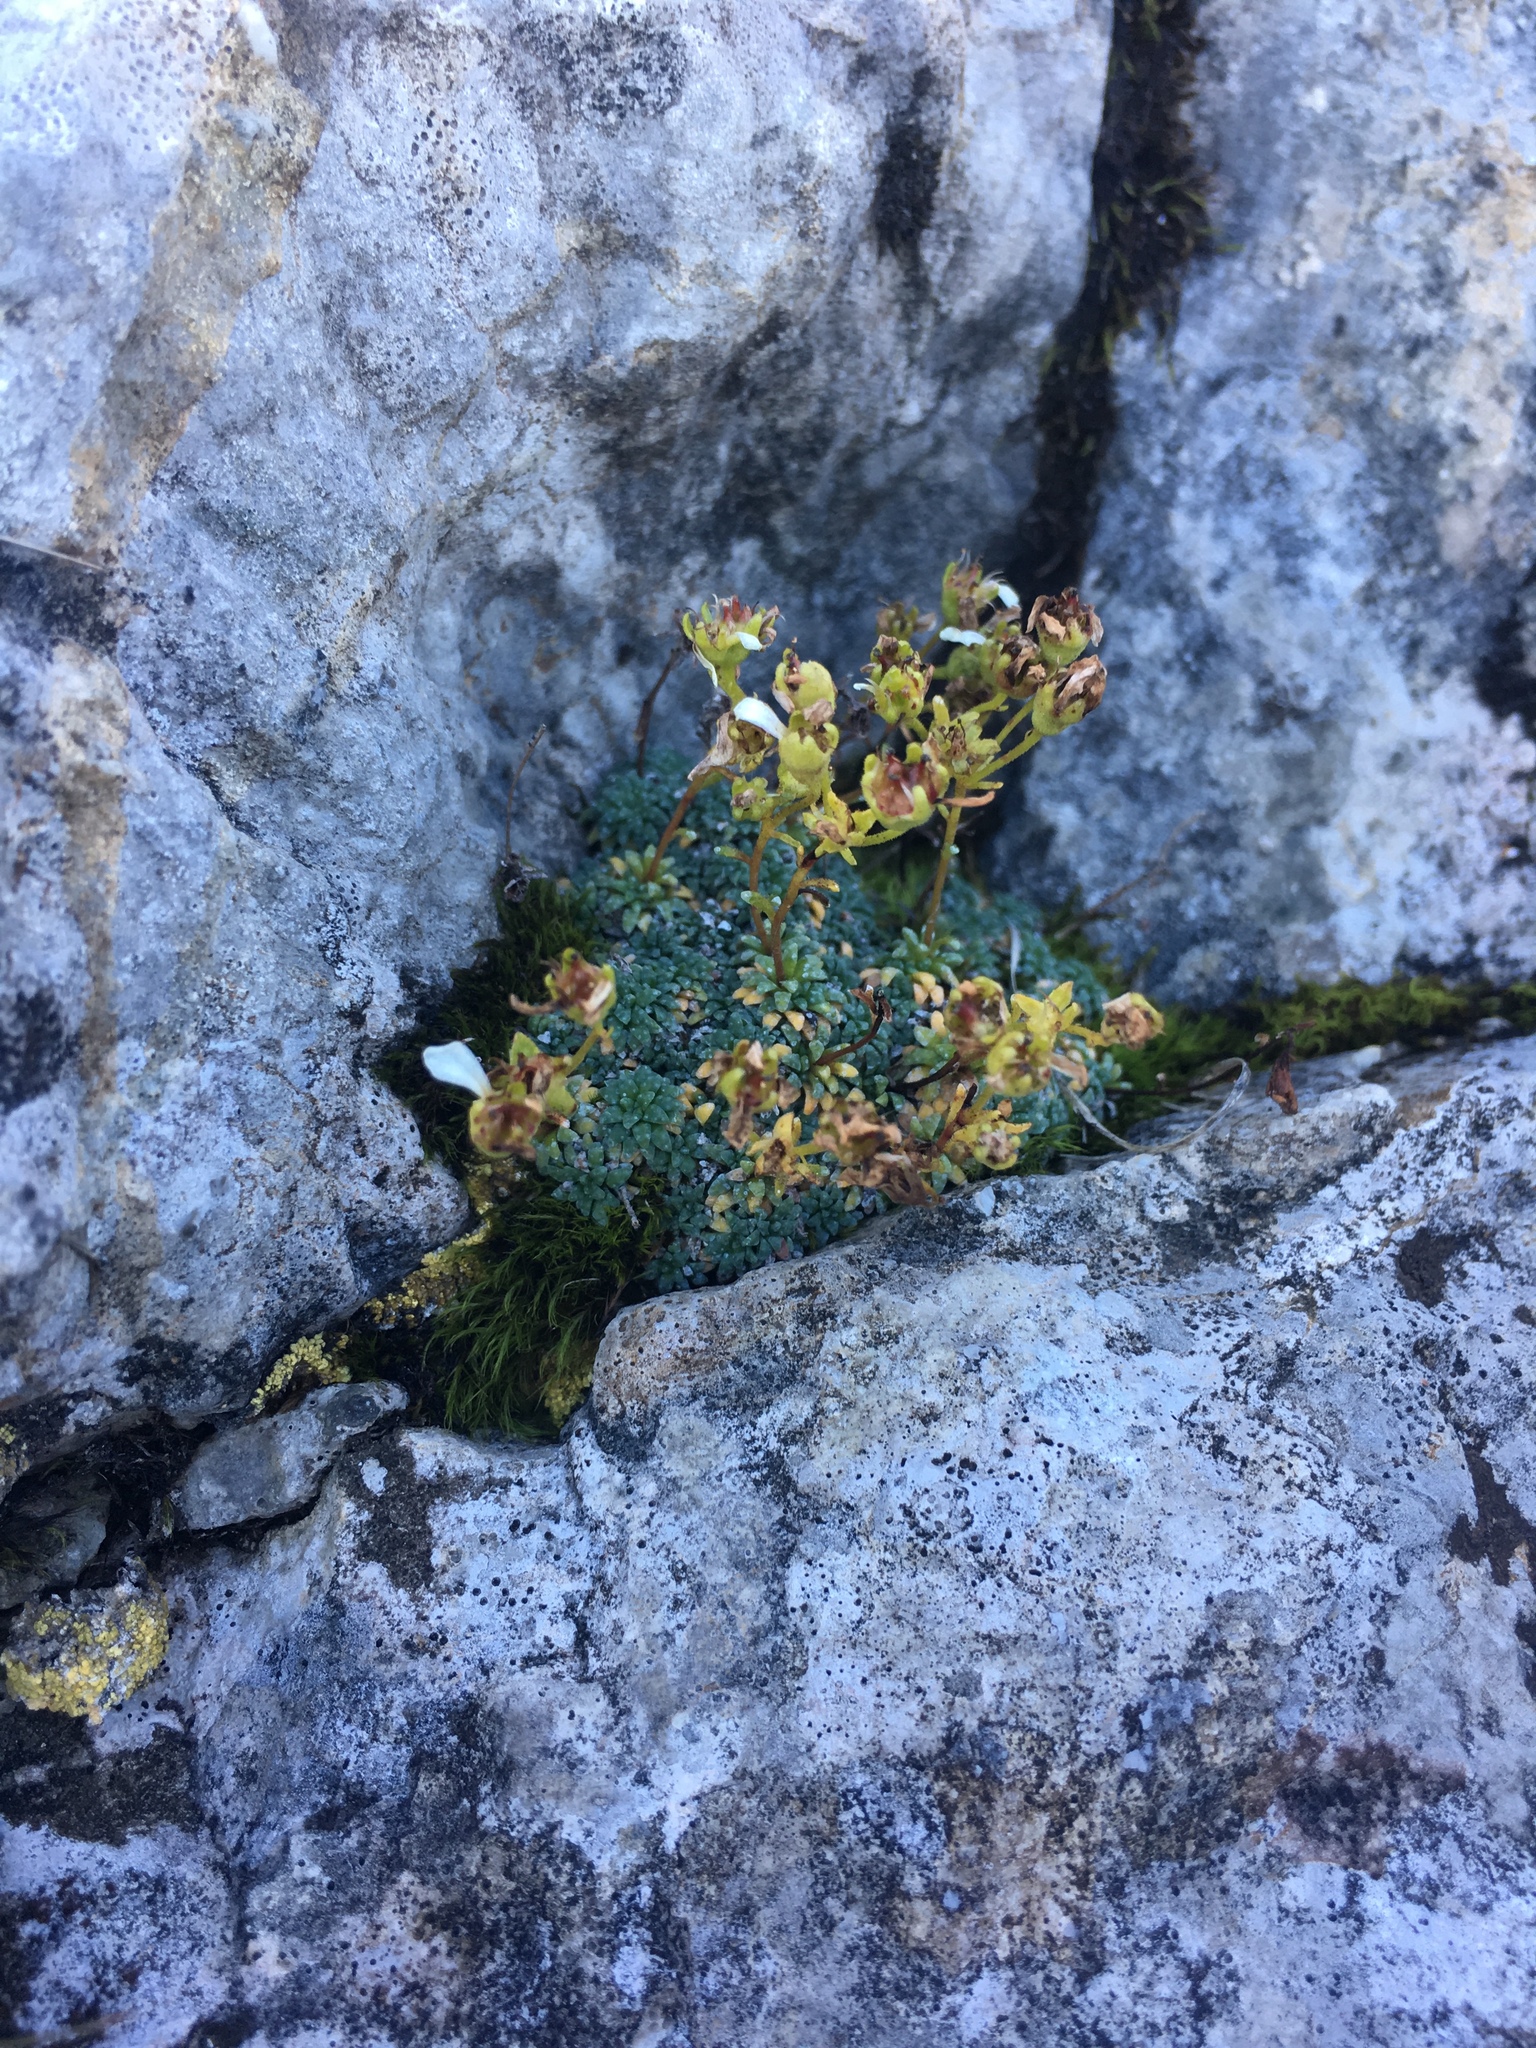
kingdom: Plantae
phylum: Tracheophyta
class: Magnoliopsida
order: Saxifragales
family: Saxifragaceae
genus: Saxifraga
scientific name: Saxifraga caesia
